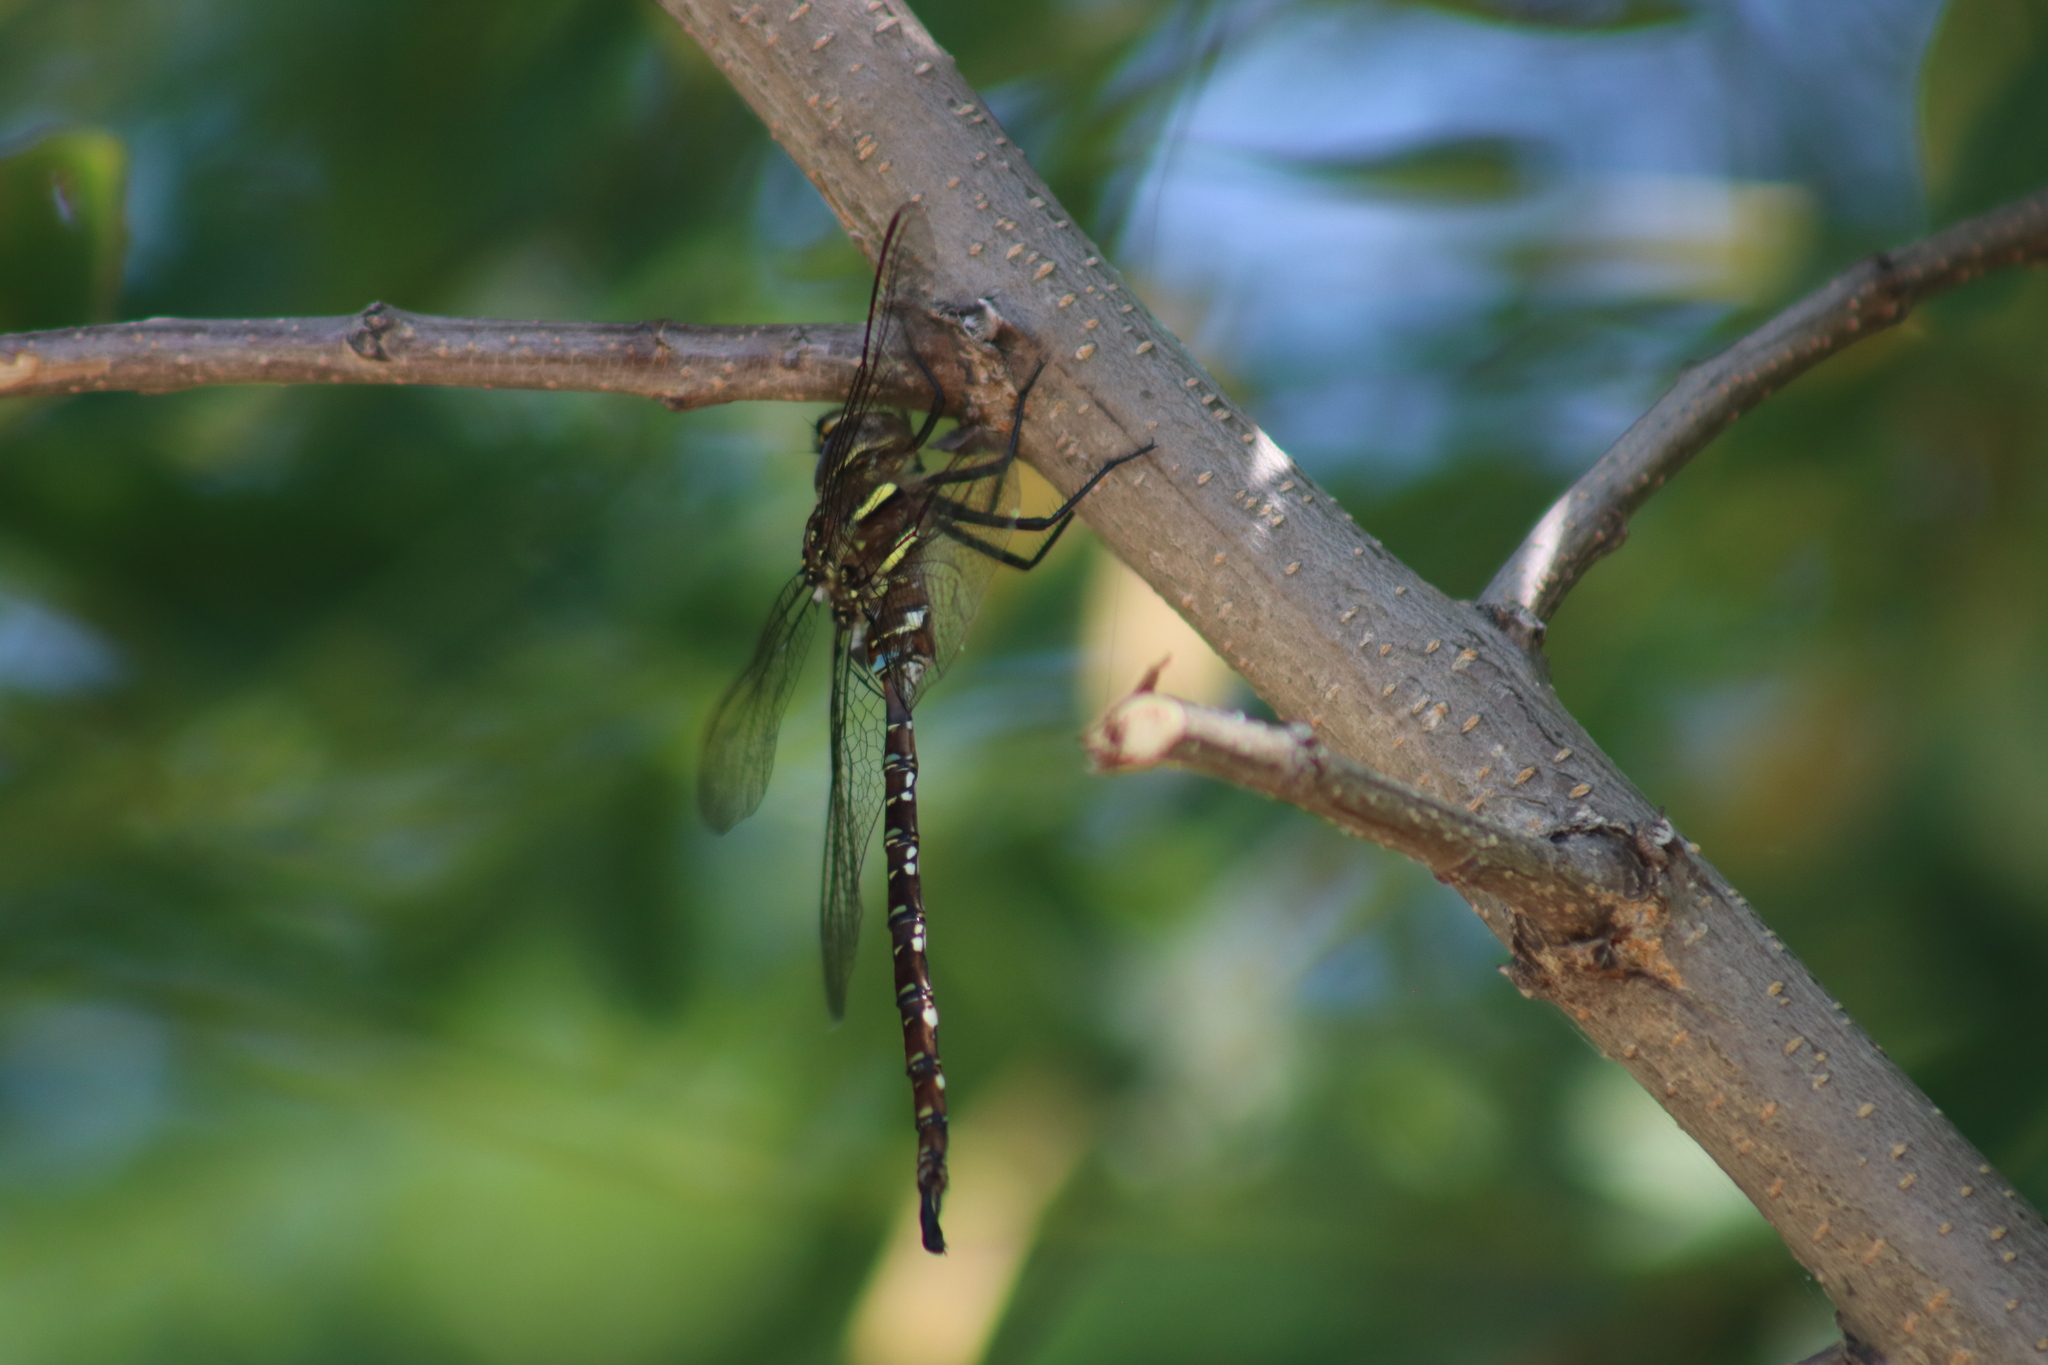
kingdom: Animalia
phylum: Arthropoda
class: Insecta
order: Odonata
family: Aeshnidae
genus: Aeshna
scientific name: Aeshna umbrosa
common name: Shadow darner
